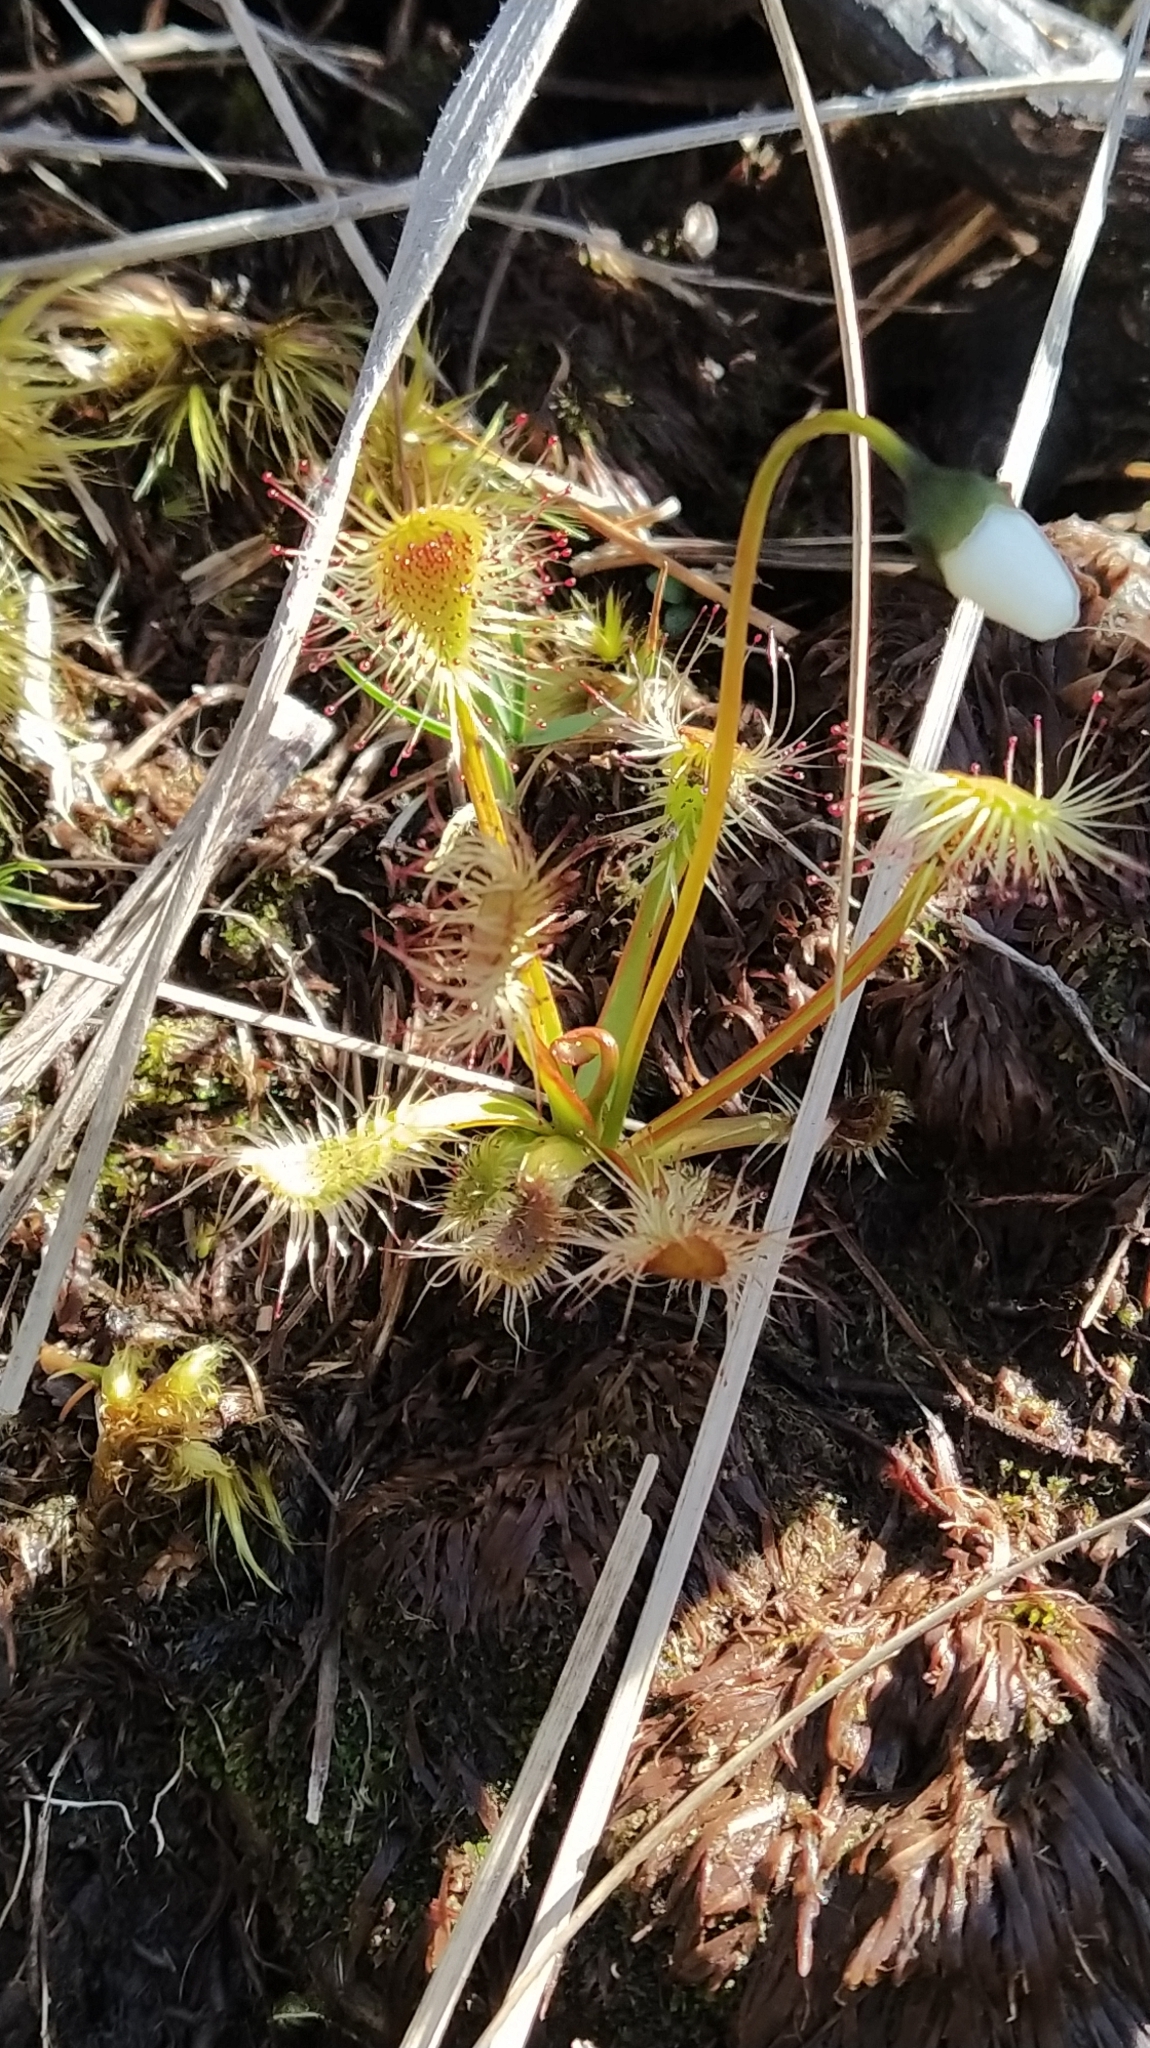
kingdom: Plantae
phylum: Tracheophyta
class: Magnoliopsida
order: Caryophyllales
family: Droseraceae
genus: Drosera
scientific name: Drosera stenopetala
